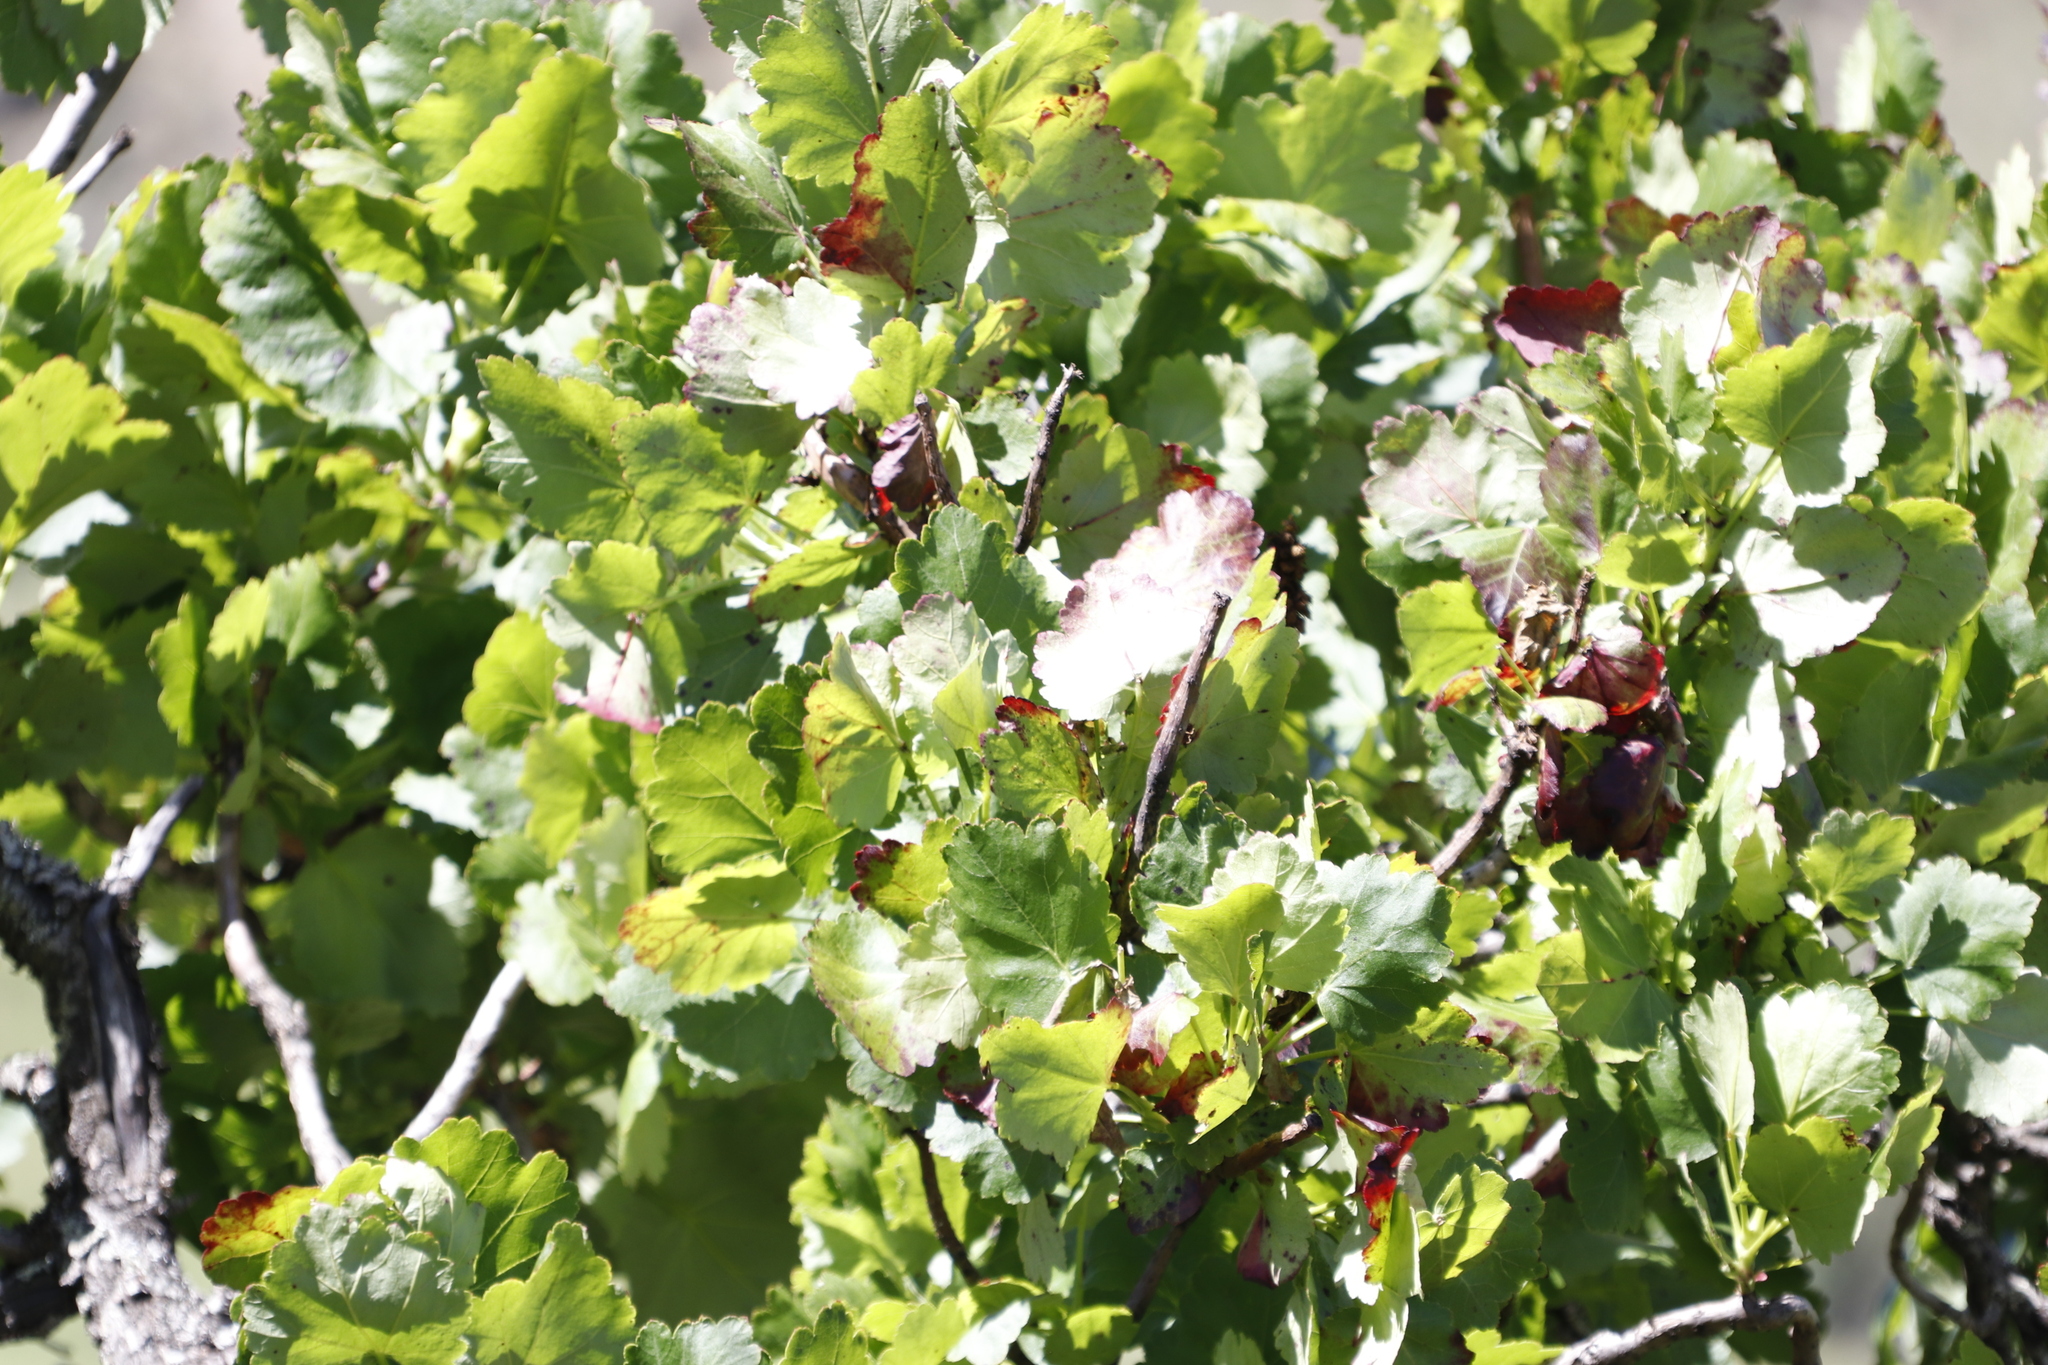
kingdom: Plantae
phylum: Tracheophyta
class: Magnoliopsida
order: Geraniales
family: Francoaceae
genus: Greyia
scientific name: Greyia sutherlandii
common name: Glossy bottlebrush
